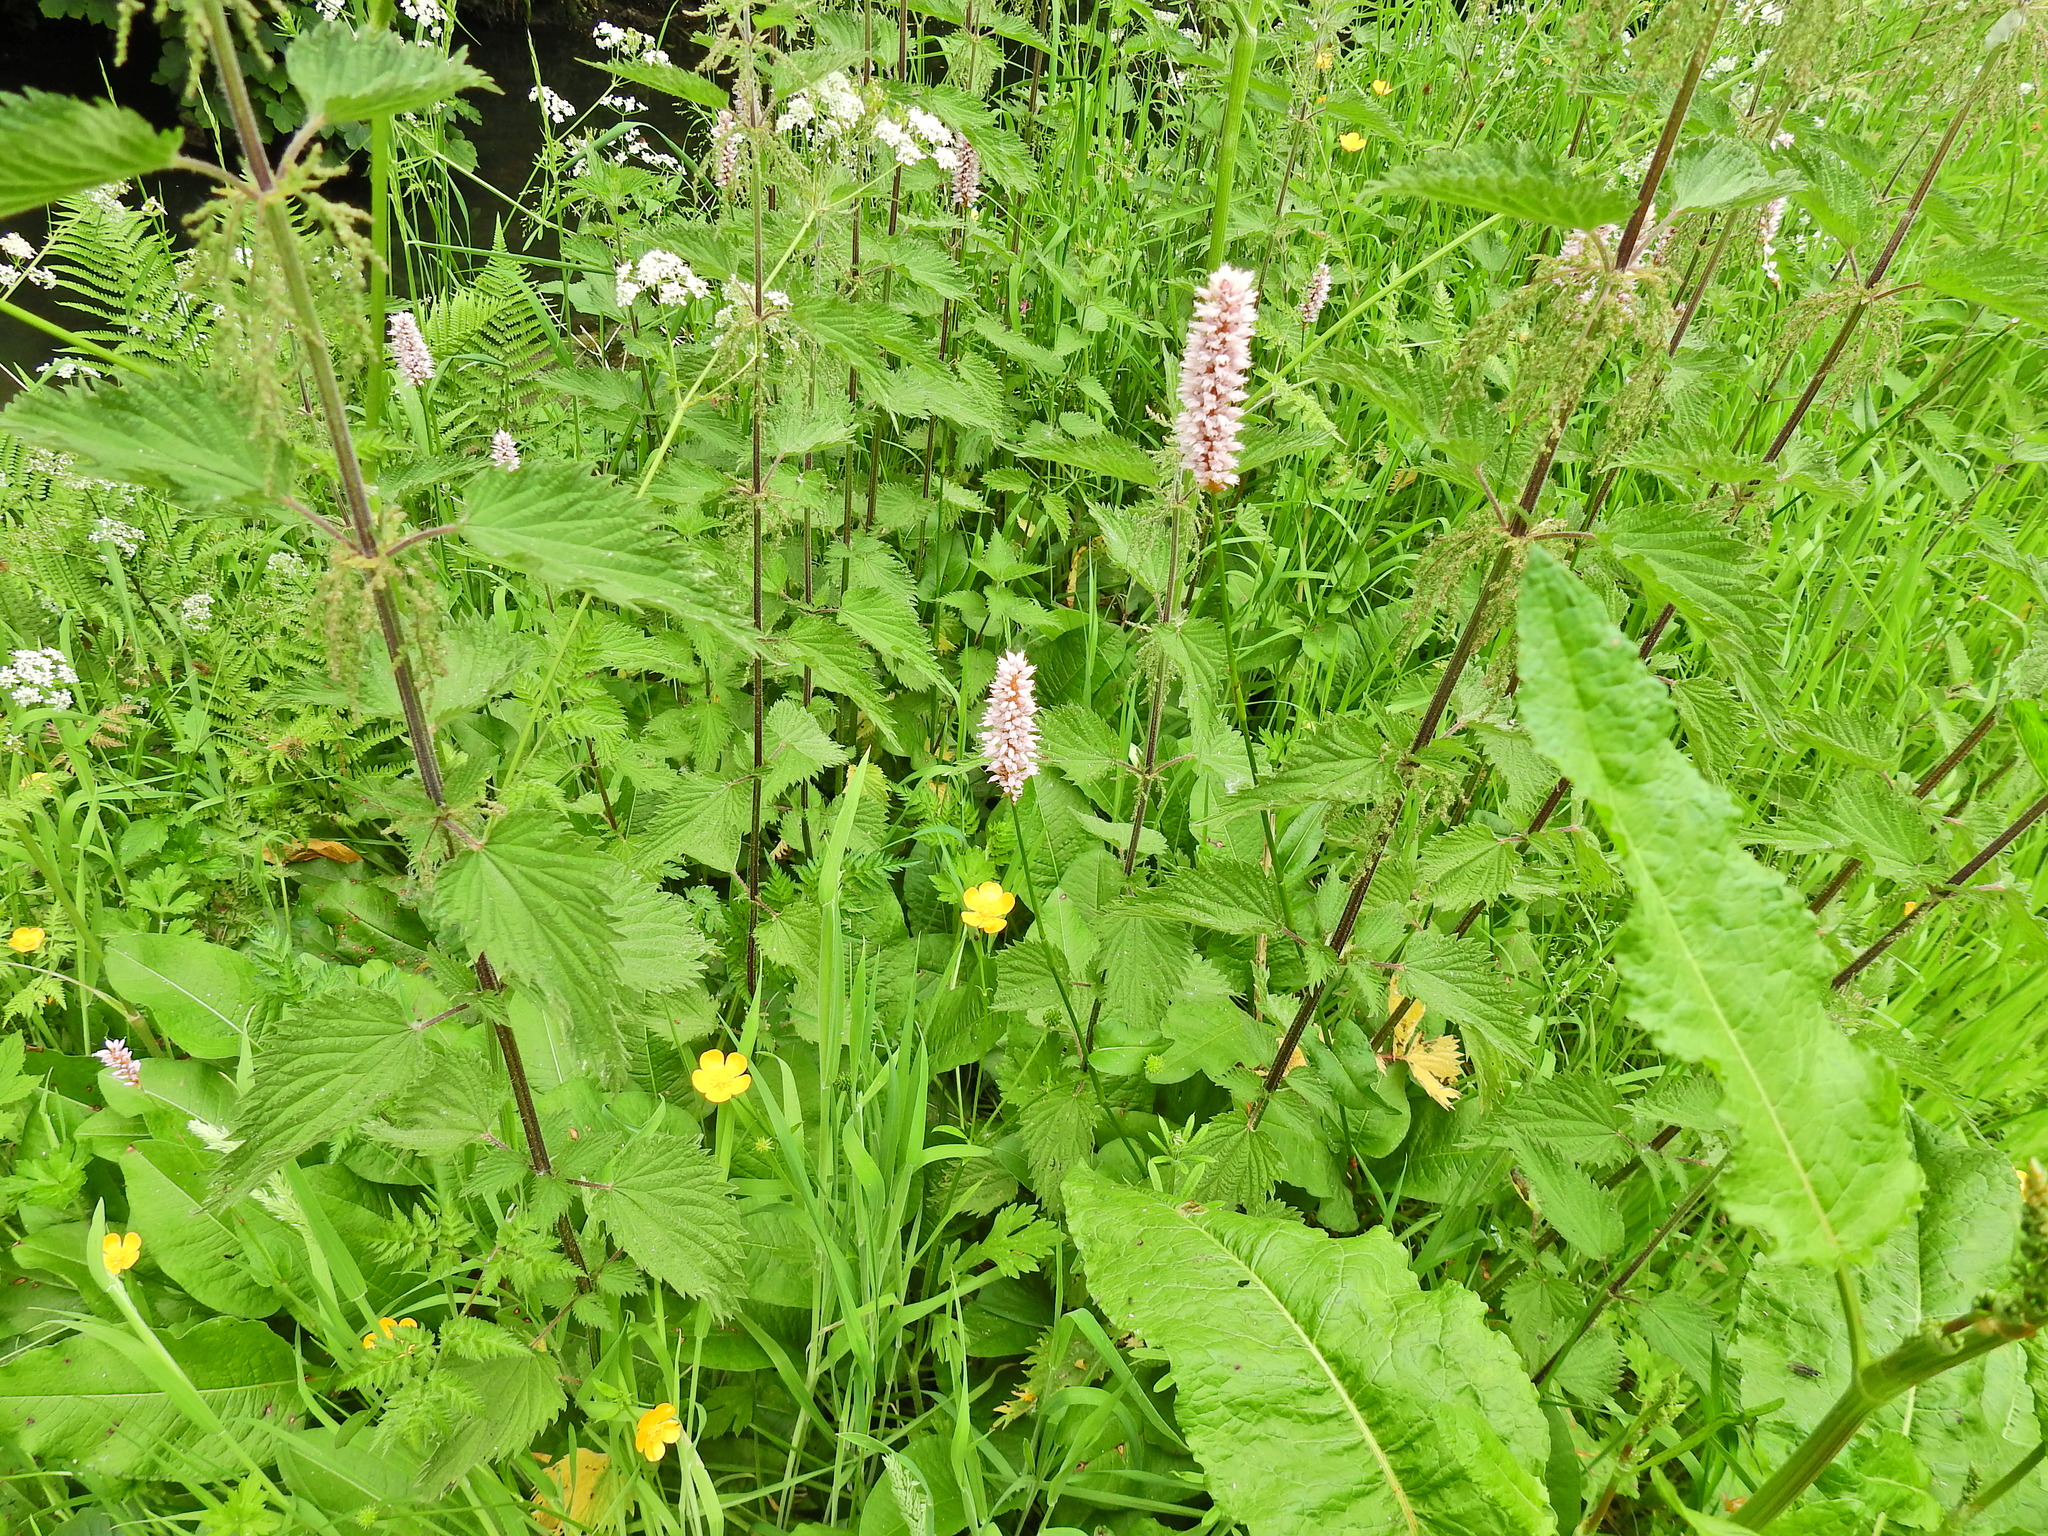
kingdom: Plantae
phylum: Tracheophyta
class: Magnoliopsida
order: Caryophyllales
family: Polygonaceae
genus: Bistorta
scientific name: Bistorta officinalis
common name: Common bistort
